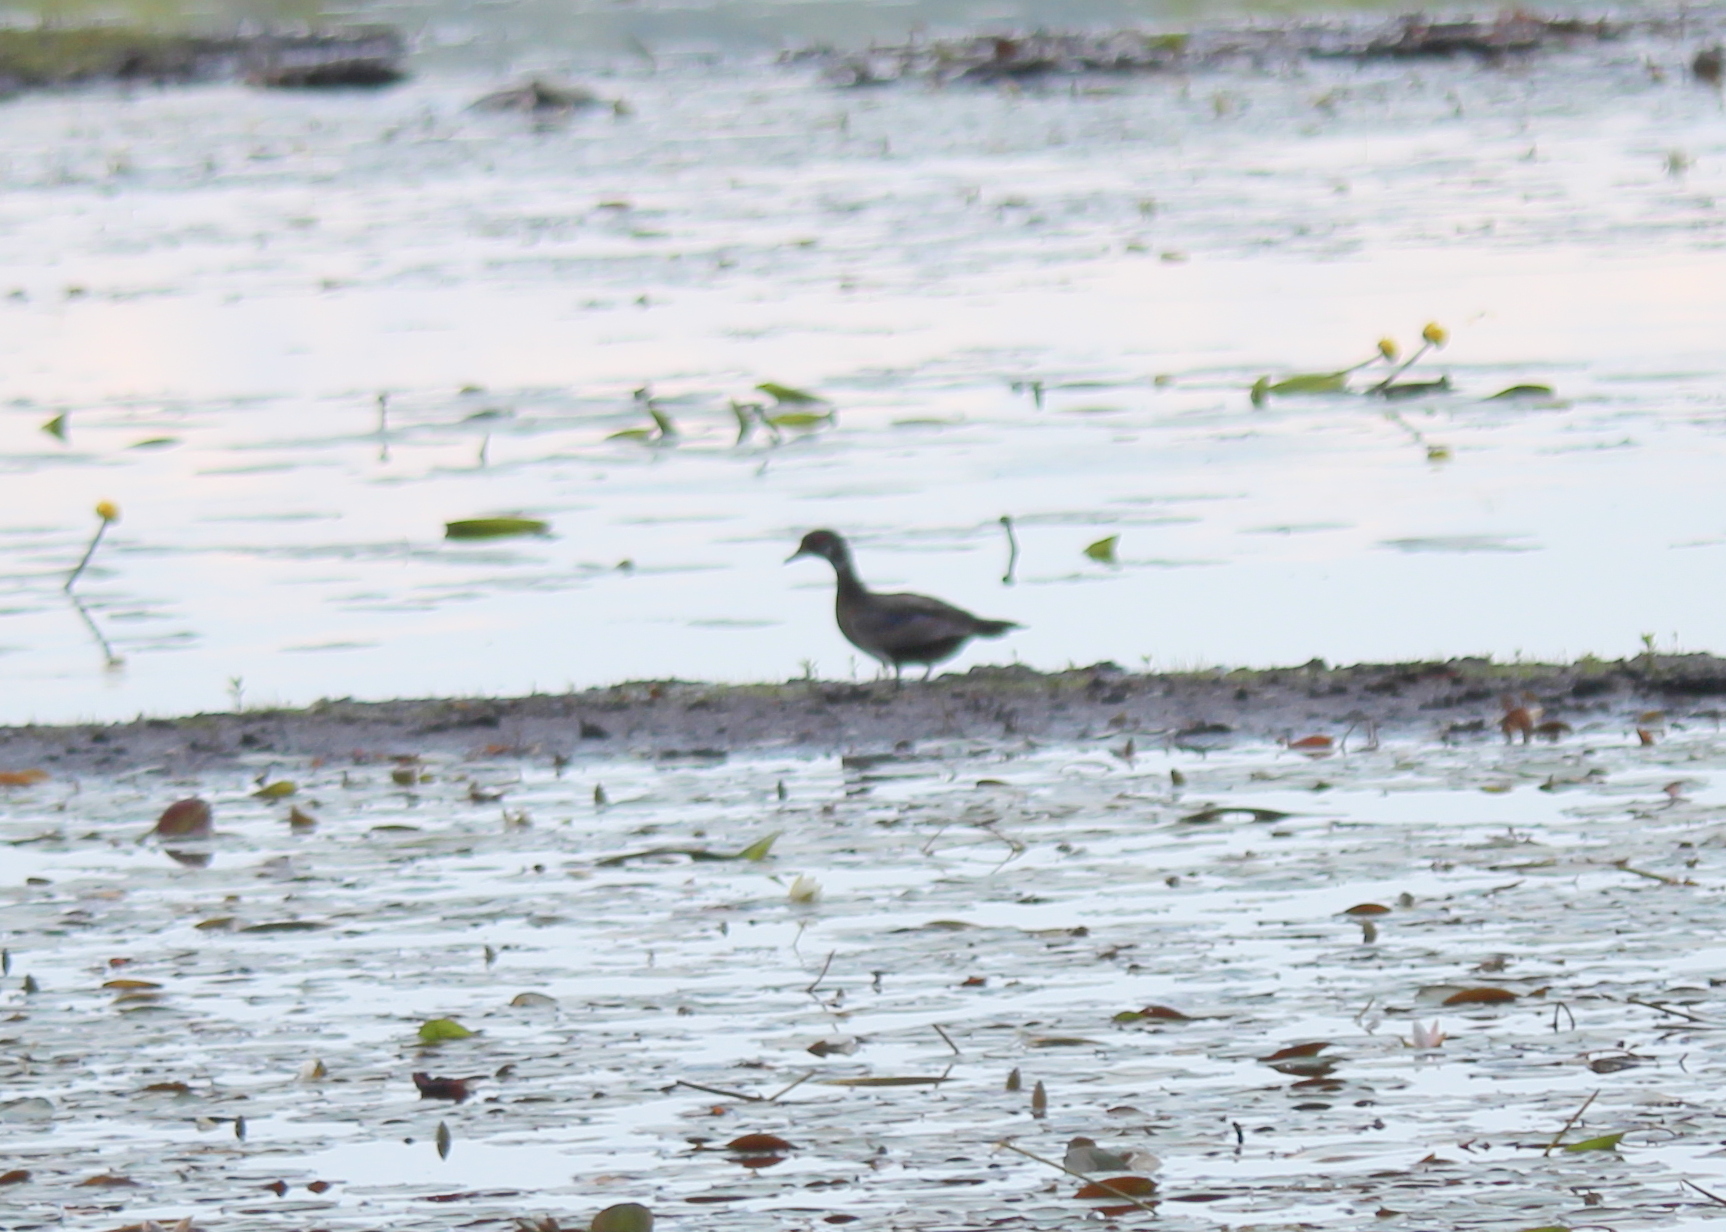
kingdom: Animalia
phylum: Chordata
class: Aves
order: Anseriformes
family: Anatidae
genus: Aix
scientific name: Aix sponsa
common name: Wood duck
